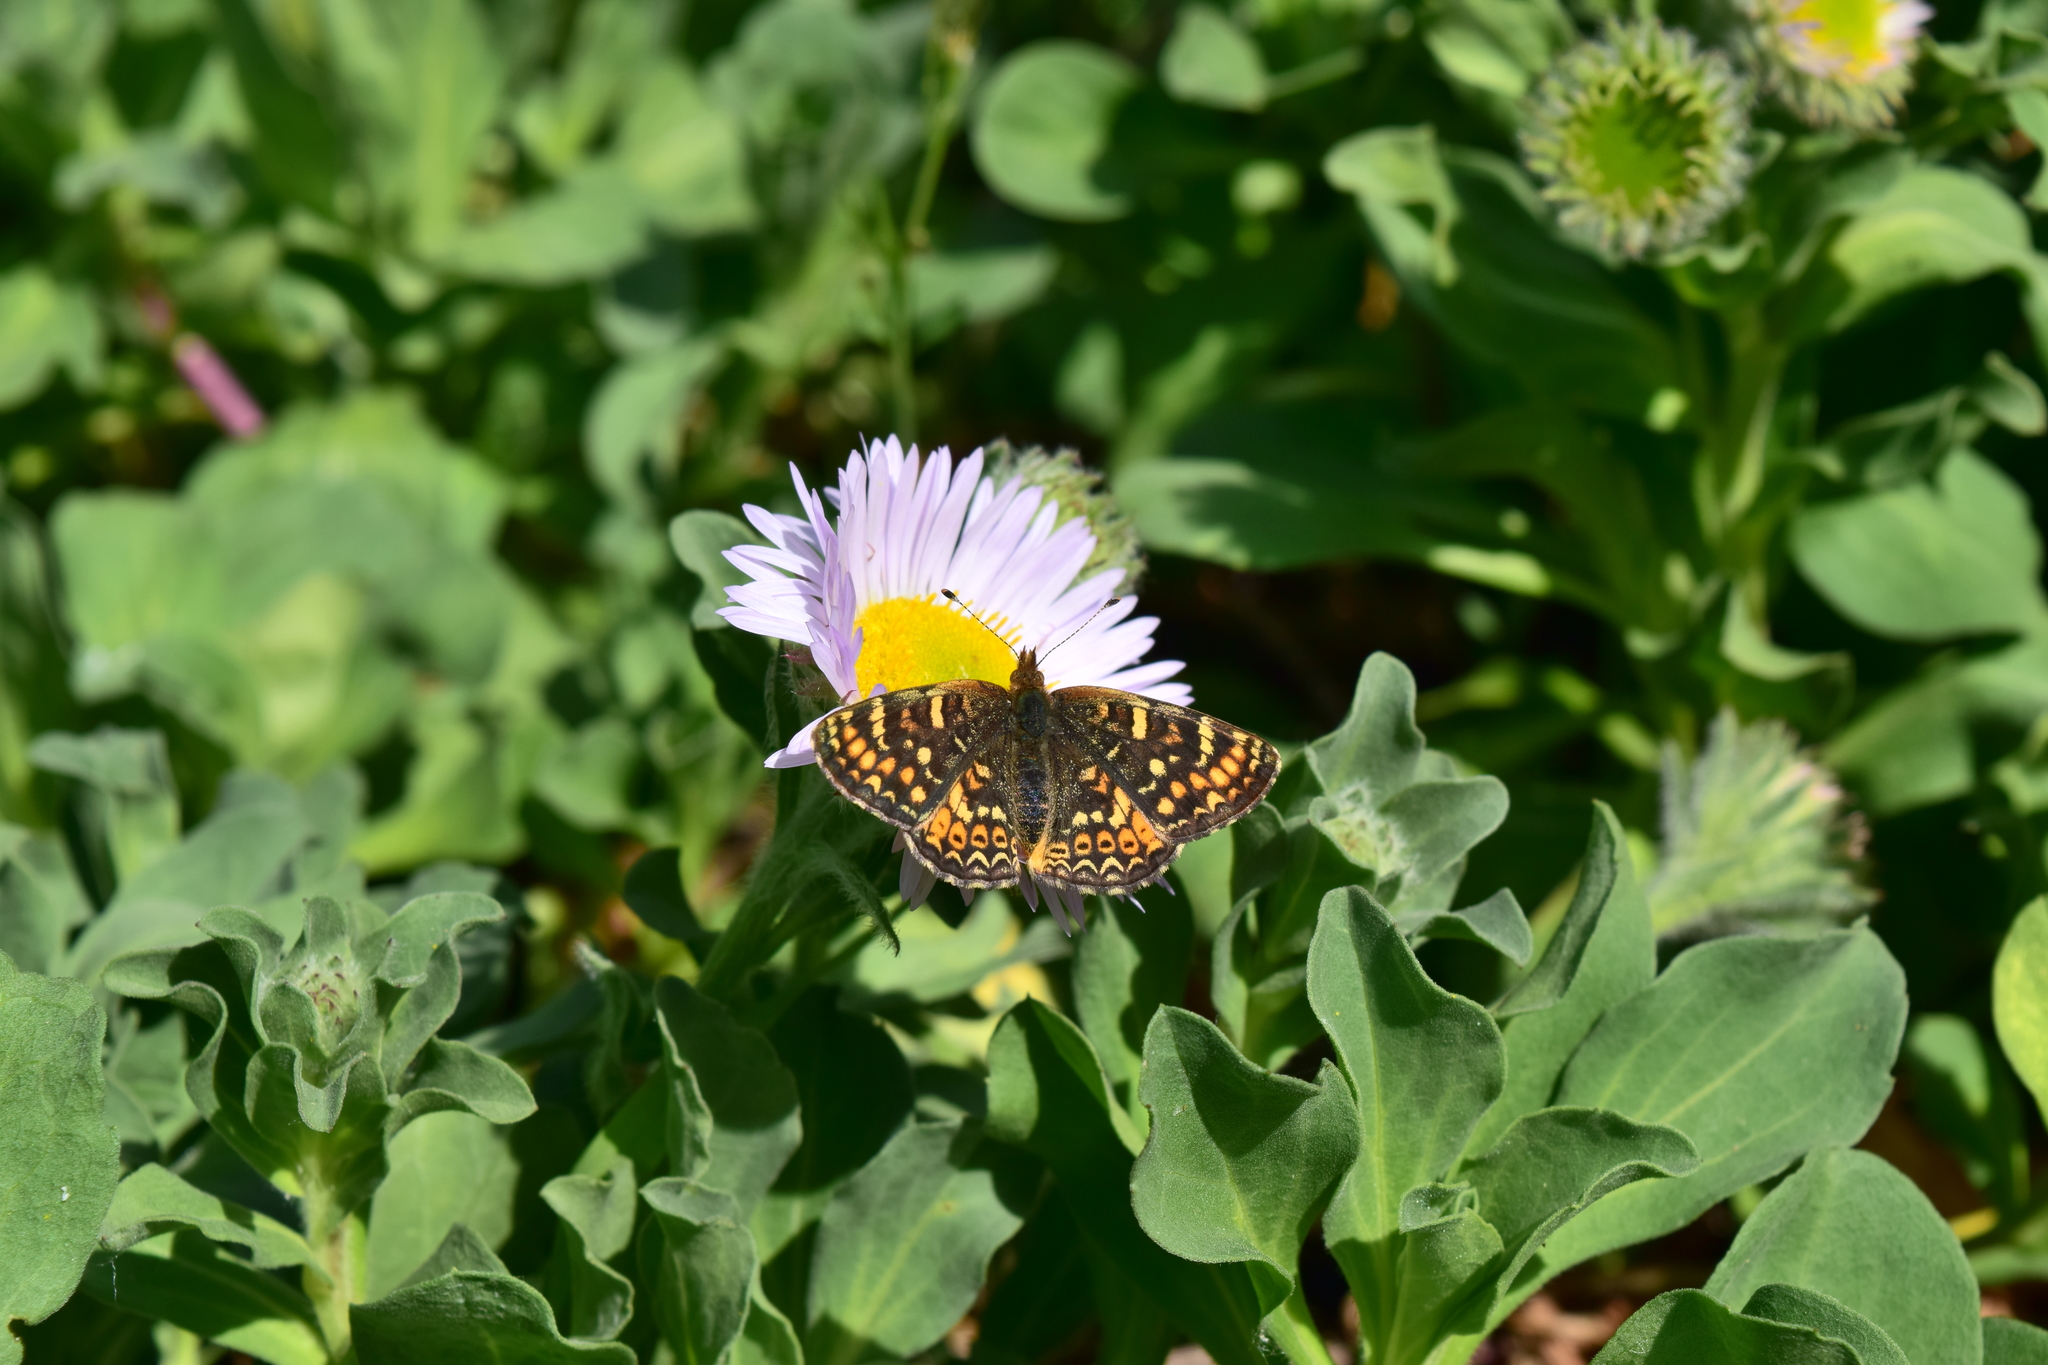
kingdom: Animalia
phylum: Arthropoda
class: Insecta
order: Lepidoptera
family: Nymphalidae
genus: Phyciodes
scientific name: Phyciodes tharos
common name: Pearl crescent
